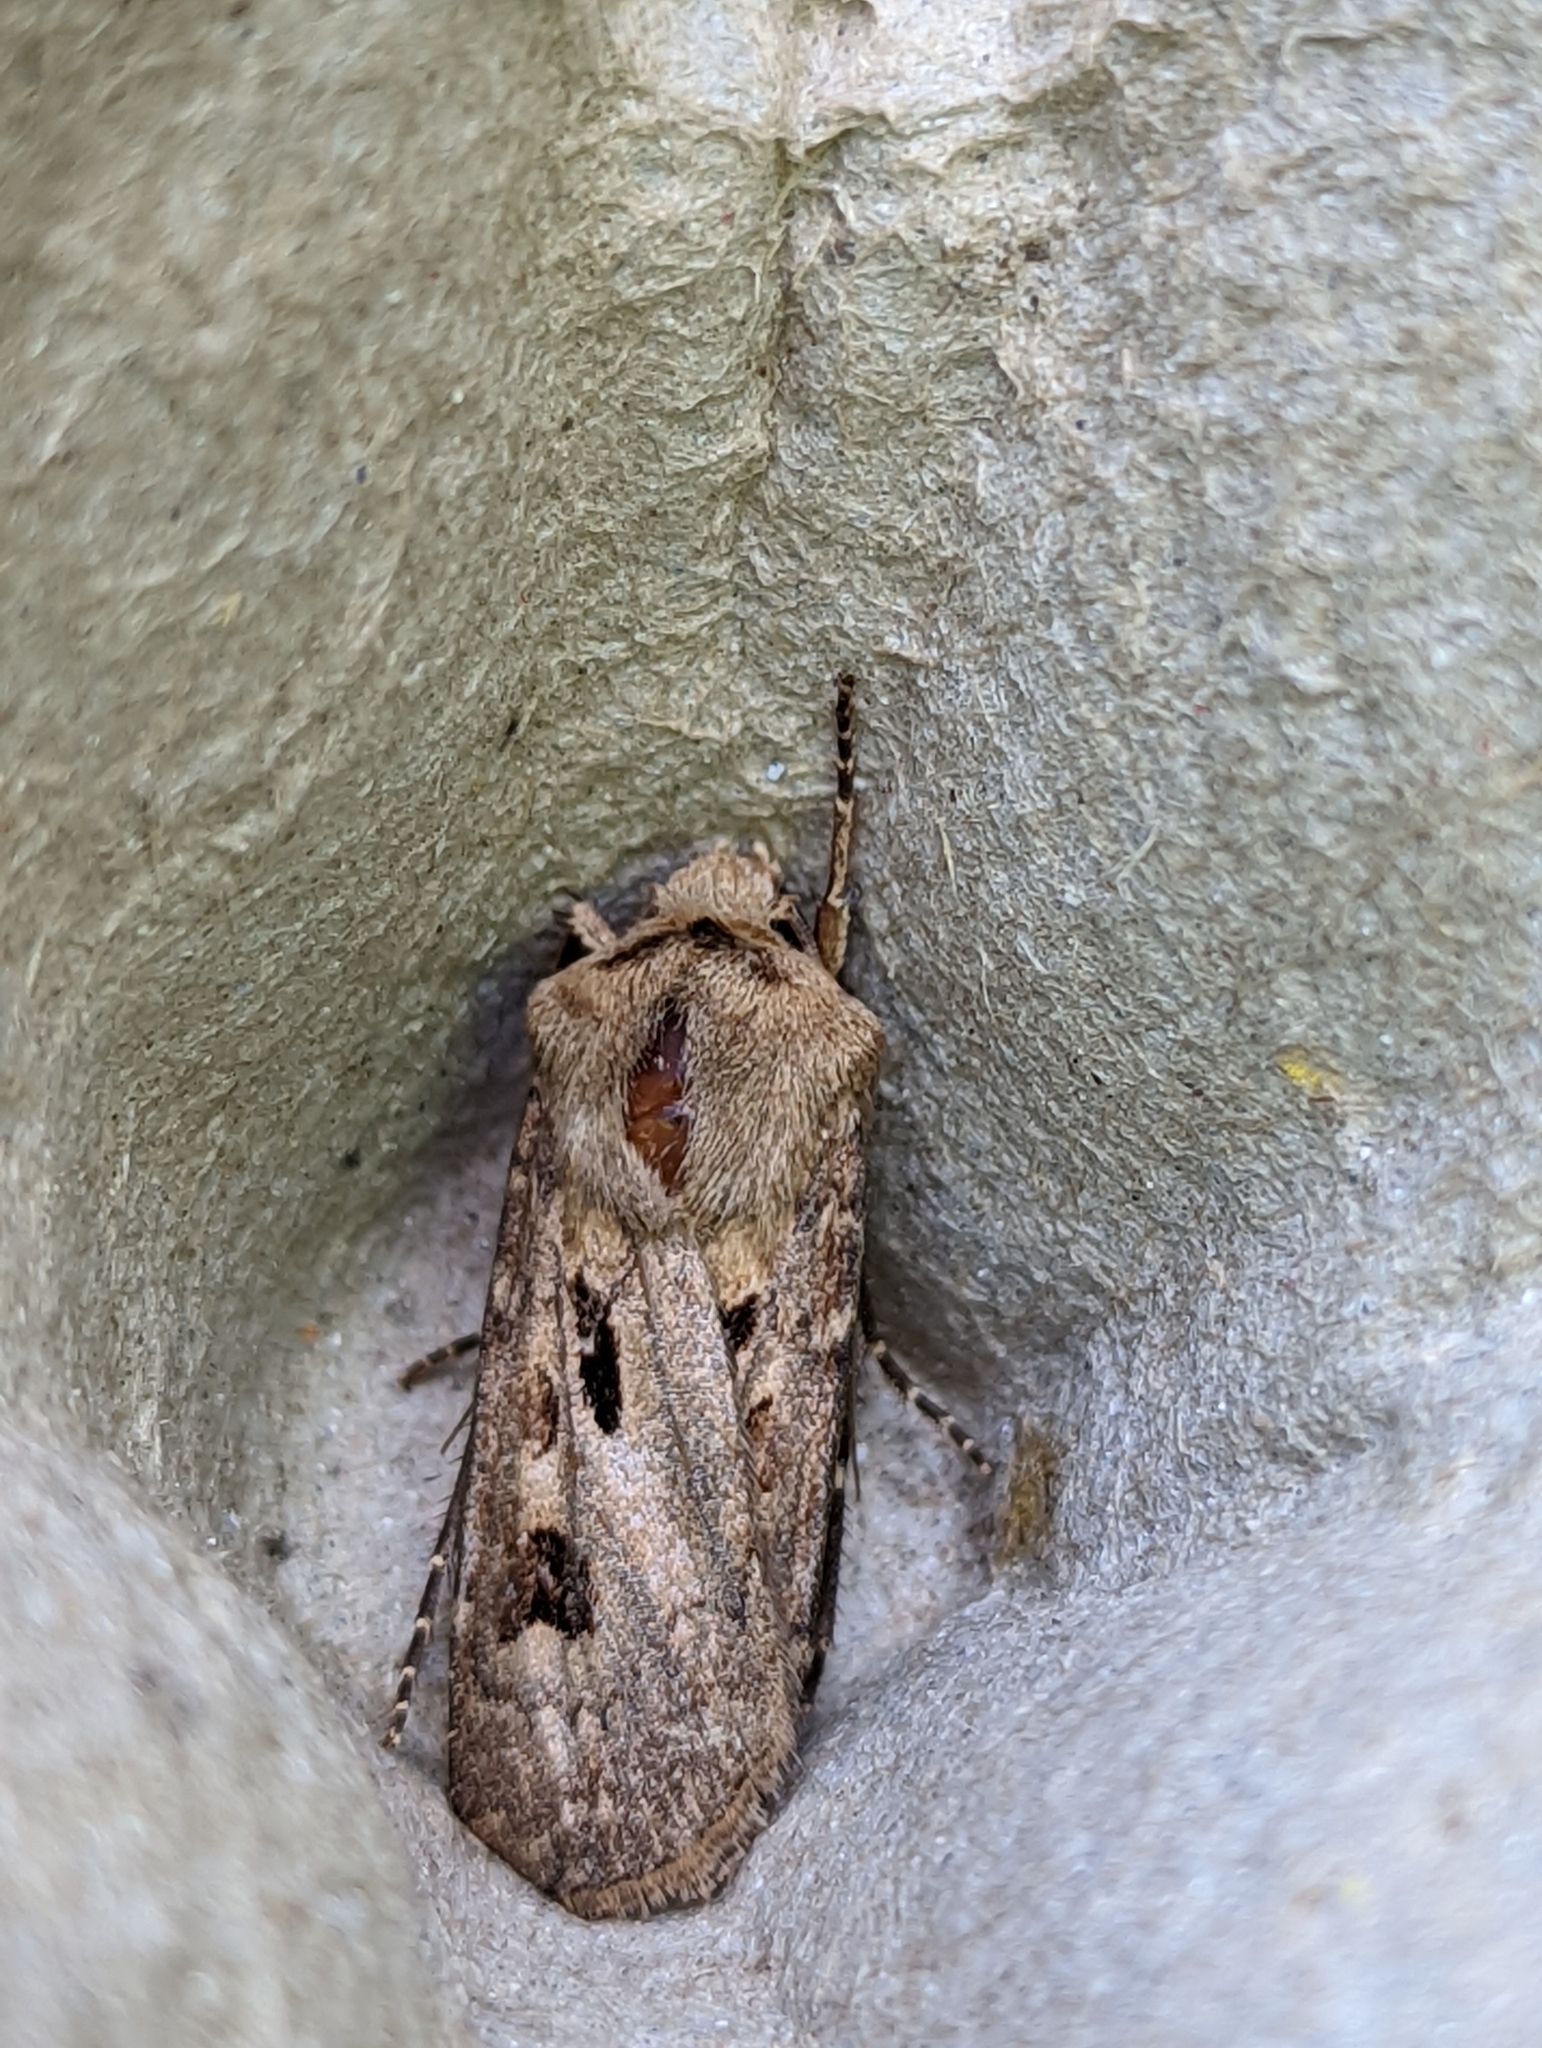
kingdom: Animalia
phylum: Arthropoda
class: Insecta
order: Lepidoptera
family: Noctuidae
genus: Agrotis
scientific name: Agrotis exclamationis
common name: Heart and dart
